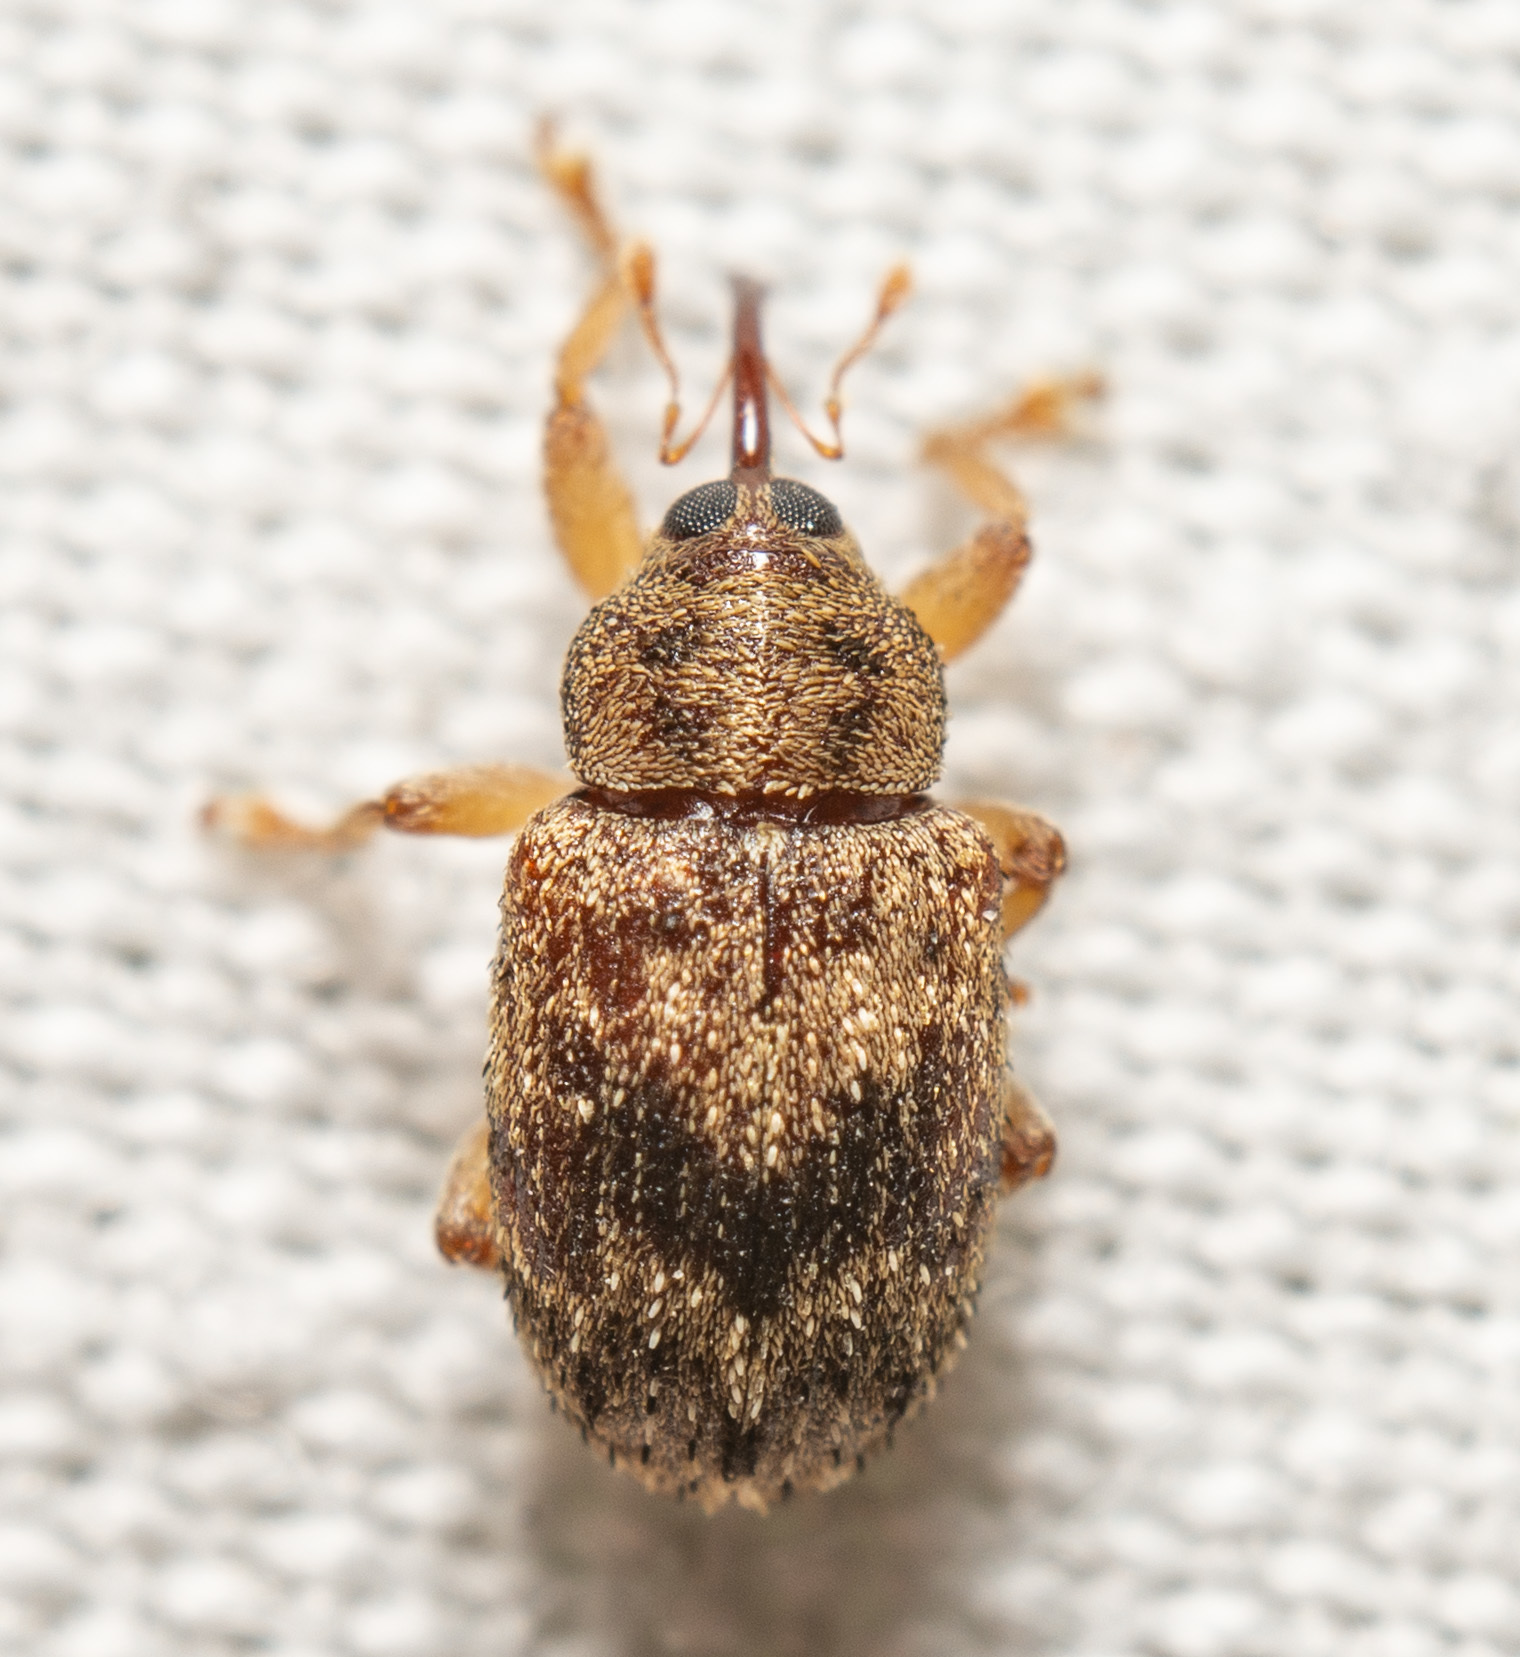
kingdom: Animalia
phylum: Arthropoda
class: Insecta
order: Coleoptera
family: Curculionidae
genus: Thysanocnemis
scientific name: Thysanocnemis bischoffi
